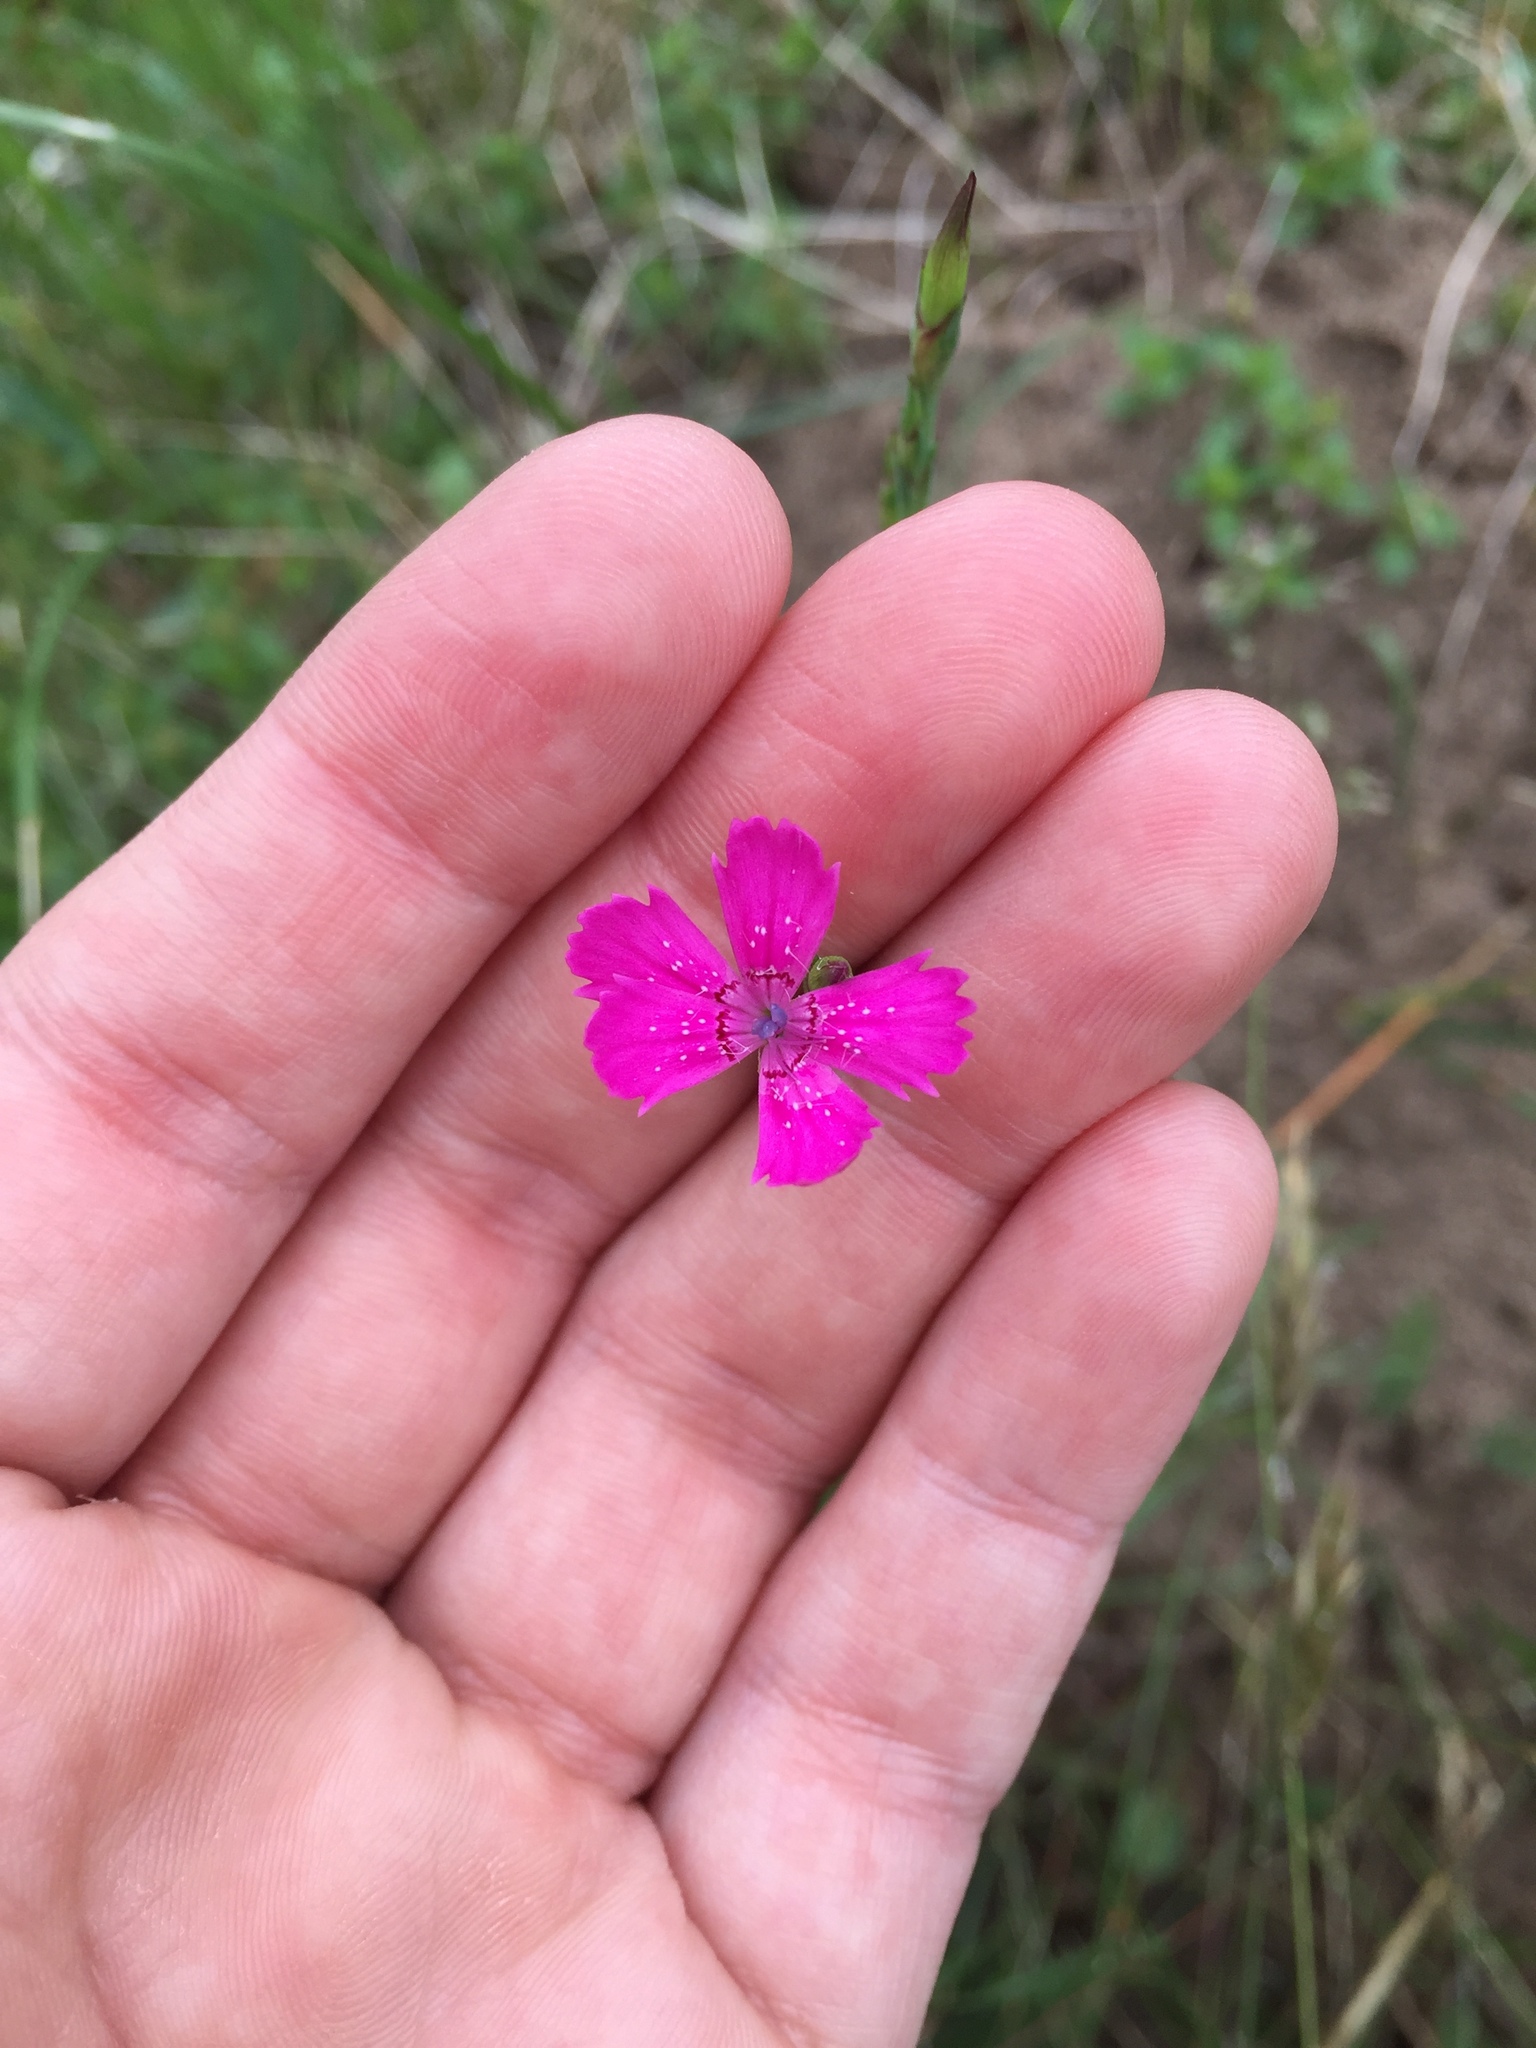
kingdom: Plantae
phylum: Tracheophyta
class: Magnoliopsida
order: Caryophyllales
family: Caryophyllaceae
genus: Dianthus
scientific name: Dianthus deltoides
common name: Maiden pink
